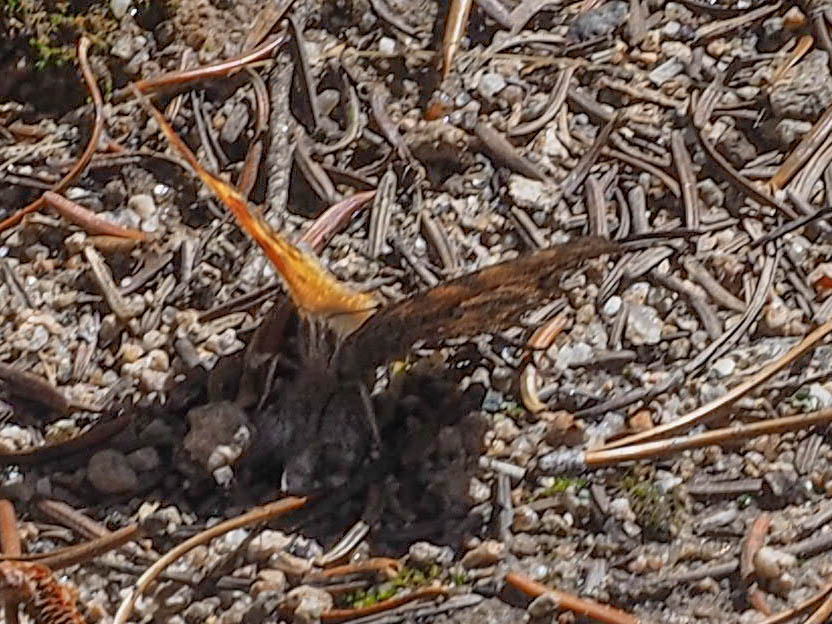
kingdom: Animalia
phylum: Arthropoda
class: Insecta
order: Lepidoptera
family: Nymphalidae
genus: Polygonia
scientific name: Polygonia gracilis
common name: Hoary comma
